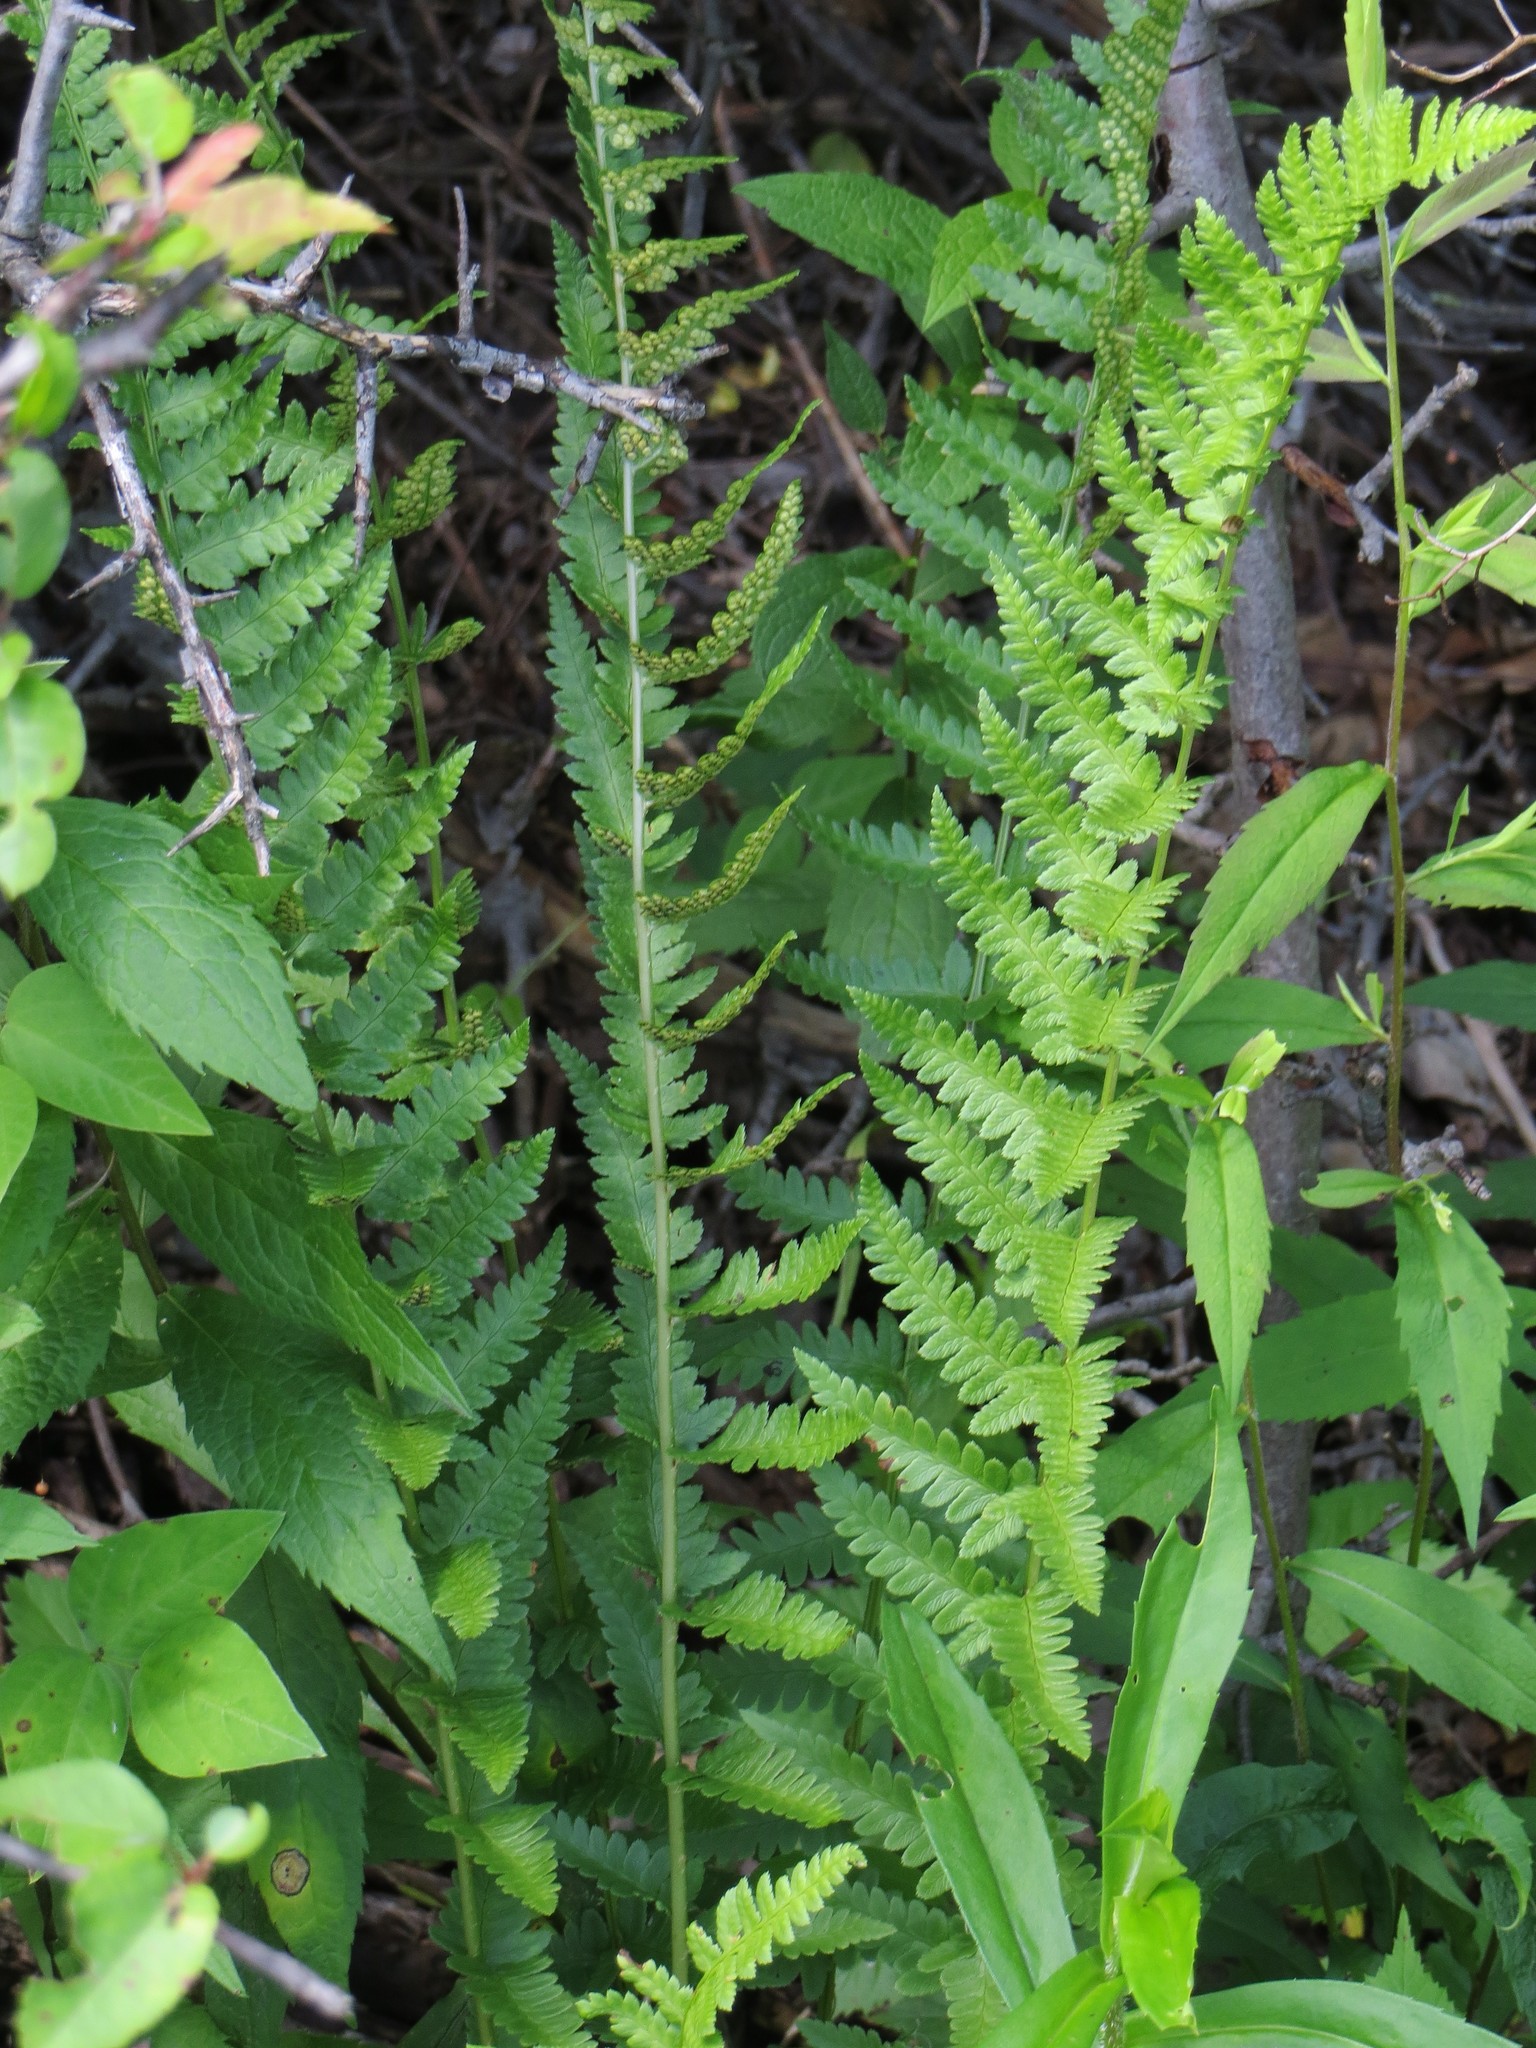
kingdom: Plantae
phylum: Tracheophyta
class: Polypodiopsida
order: Polypodiales
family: Dryopteridaceae
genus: Dryopteris
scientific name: Dryopteris cristata
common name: Crested wood fern
